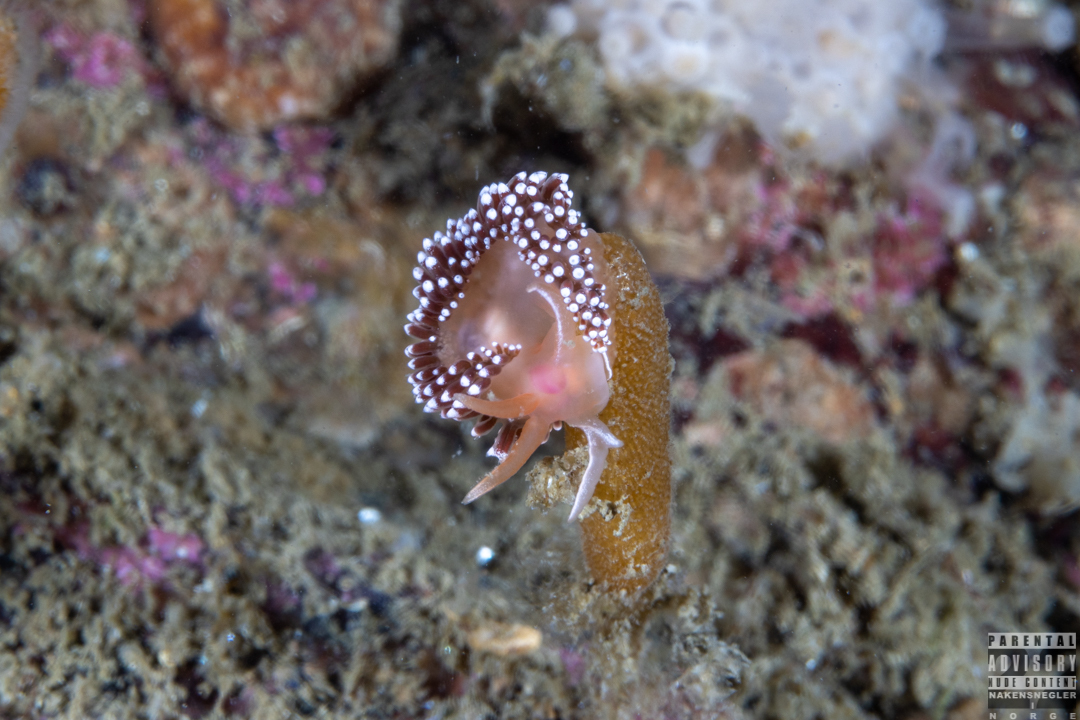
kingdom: Animalia
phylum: Mollusca
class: Gastropoda
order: Nudibranchia
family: Coryphellidae
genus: Coryphella
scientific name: Coryphella verrucosa
